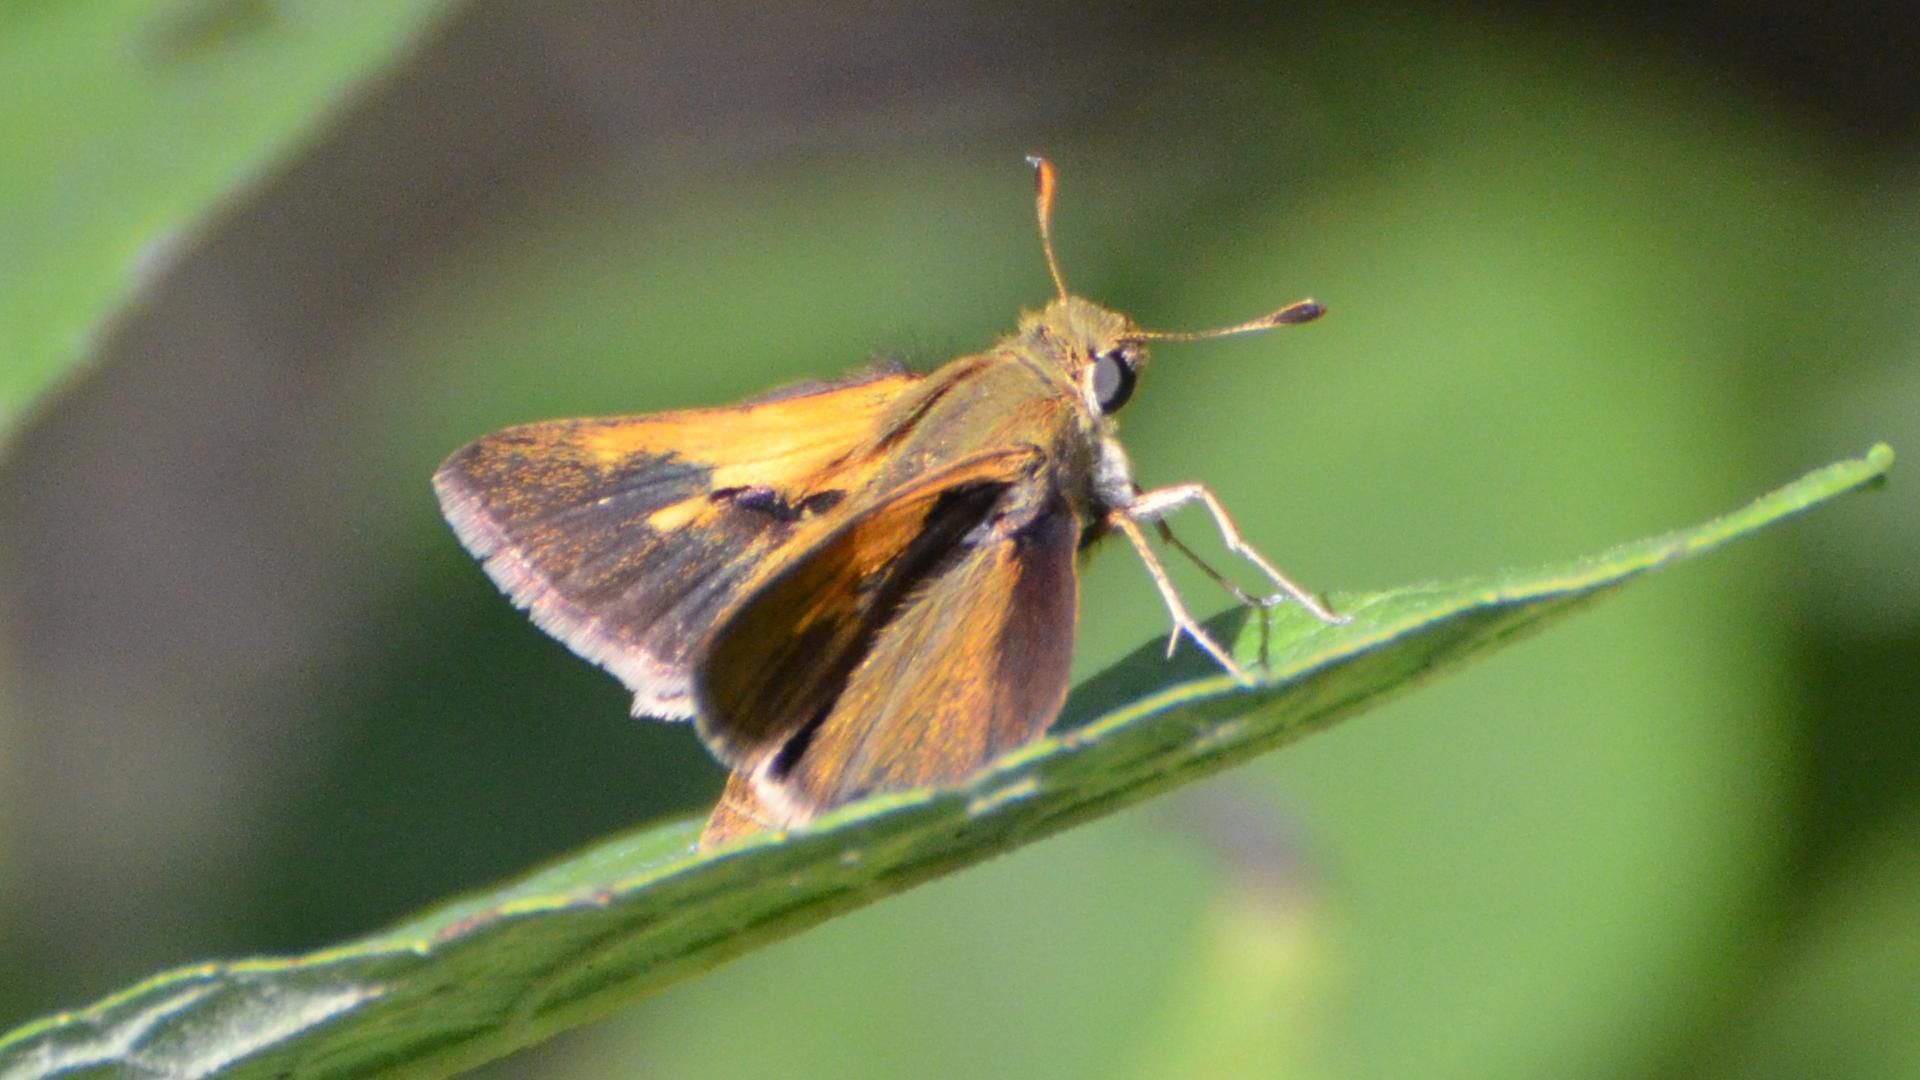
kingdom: Animalia
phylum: Arthropoda
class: Insecta
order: Lepidoptera
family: Hesperiidae
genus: Polites
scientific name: Polites themistocles
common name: Tawny-edged skipper
